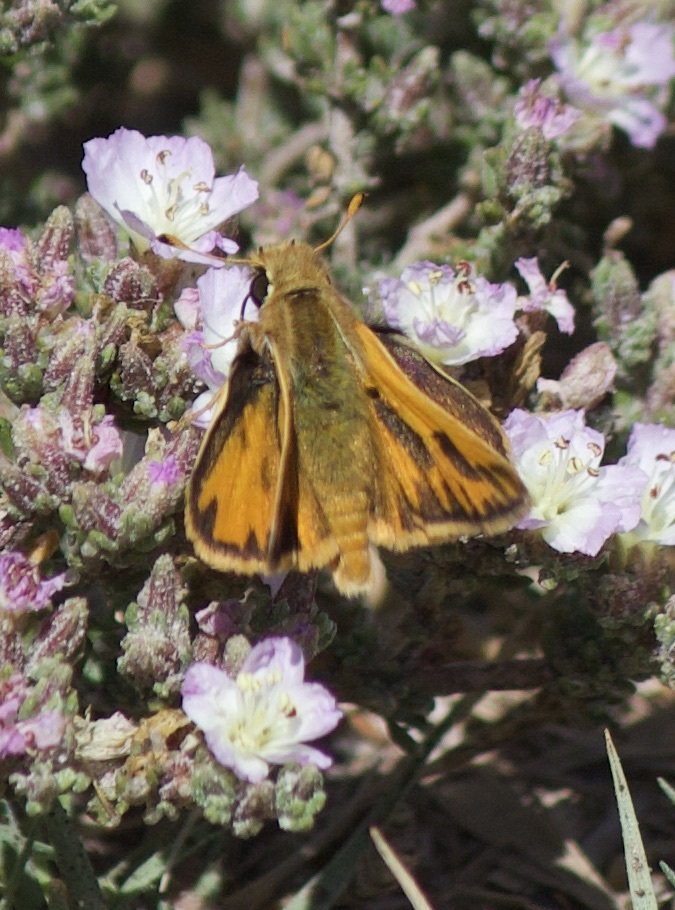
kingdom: Animalia
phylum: Arthropoda
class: Insecta
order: Lepidoptera
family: Hesperiidae
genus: Hylephila
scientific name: Hylephila fasciolata
